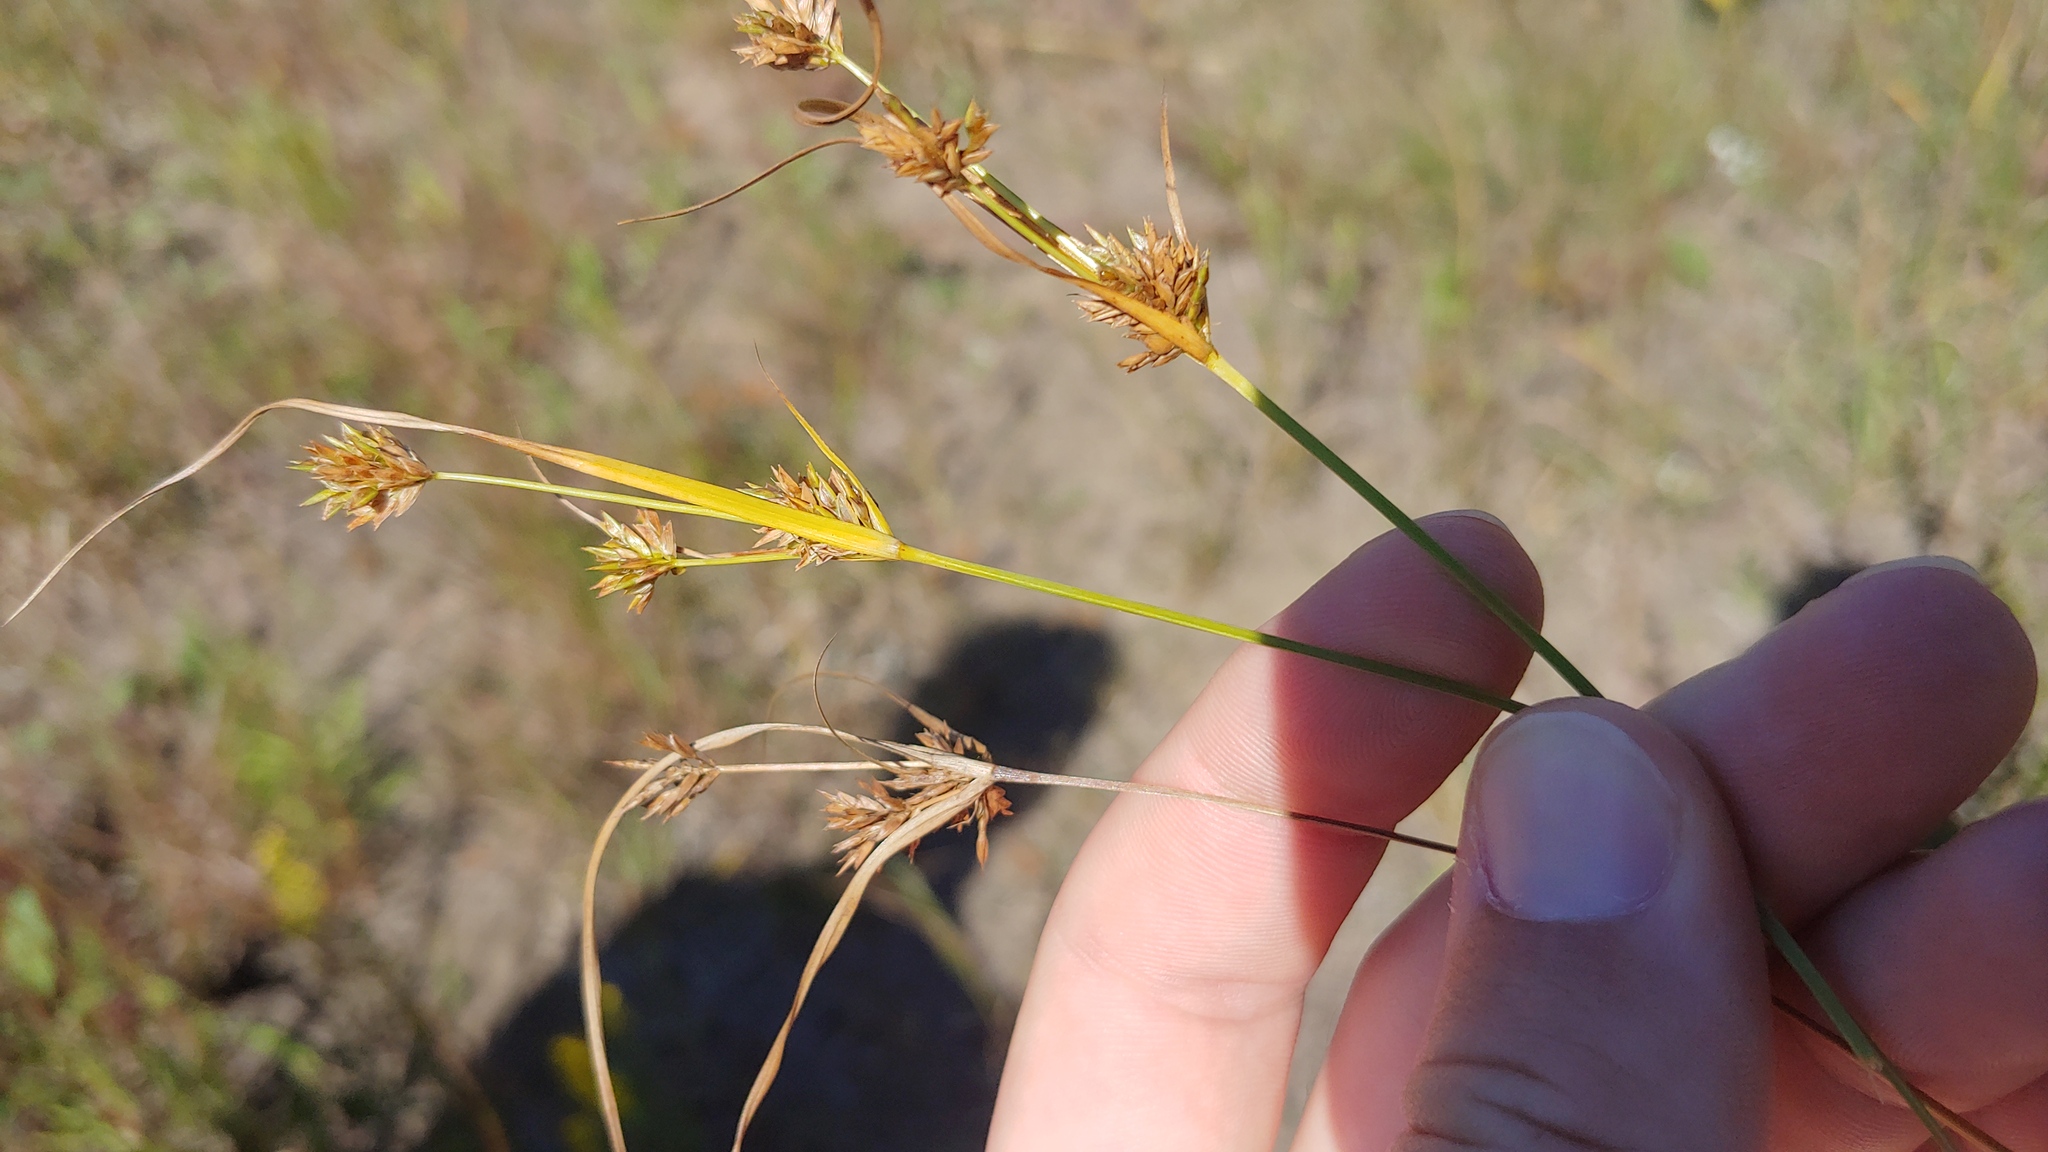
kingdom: Plantae
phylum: Tracheophyta
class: Liliopsida
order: Poales
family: Cyperaceae
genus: Cyperus
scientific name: Cyperus schweinitzii
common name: Schweinitz's cyperus
